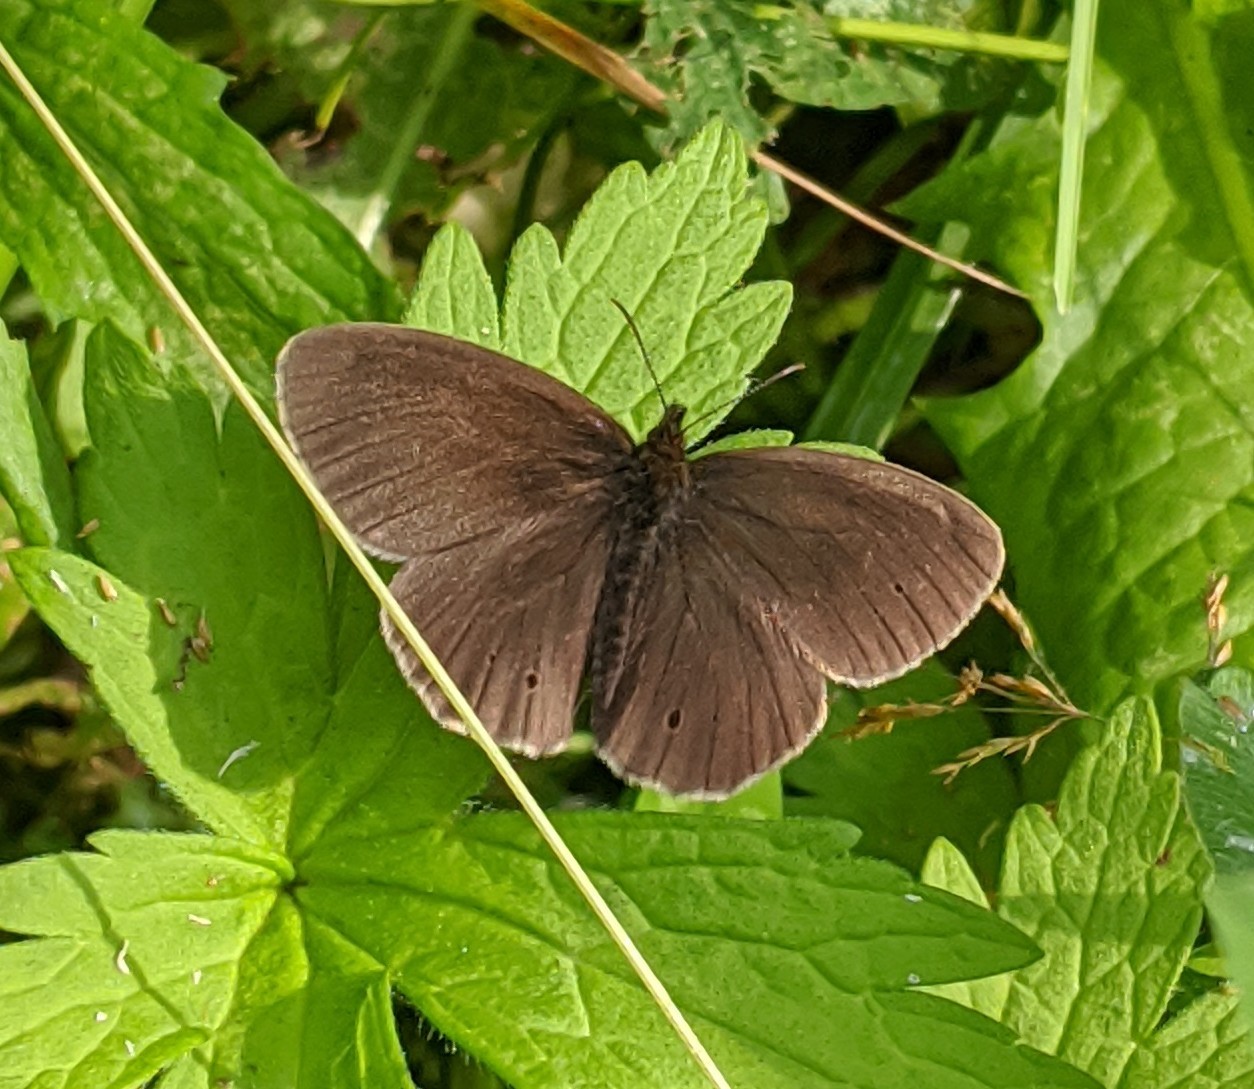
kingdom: Animalia
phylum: Arthropoda
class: Insecta
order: Lepidoptera
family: Nymphalidae
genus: Aphantopus
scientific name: Aphantopus hyperantus
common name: Ringlet
